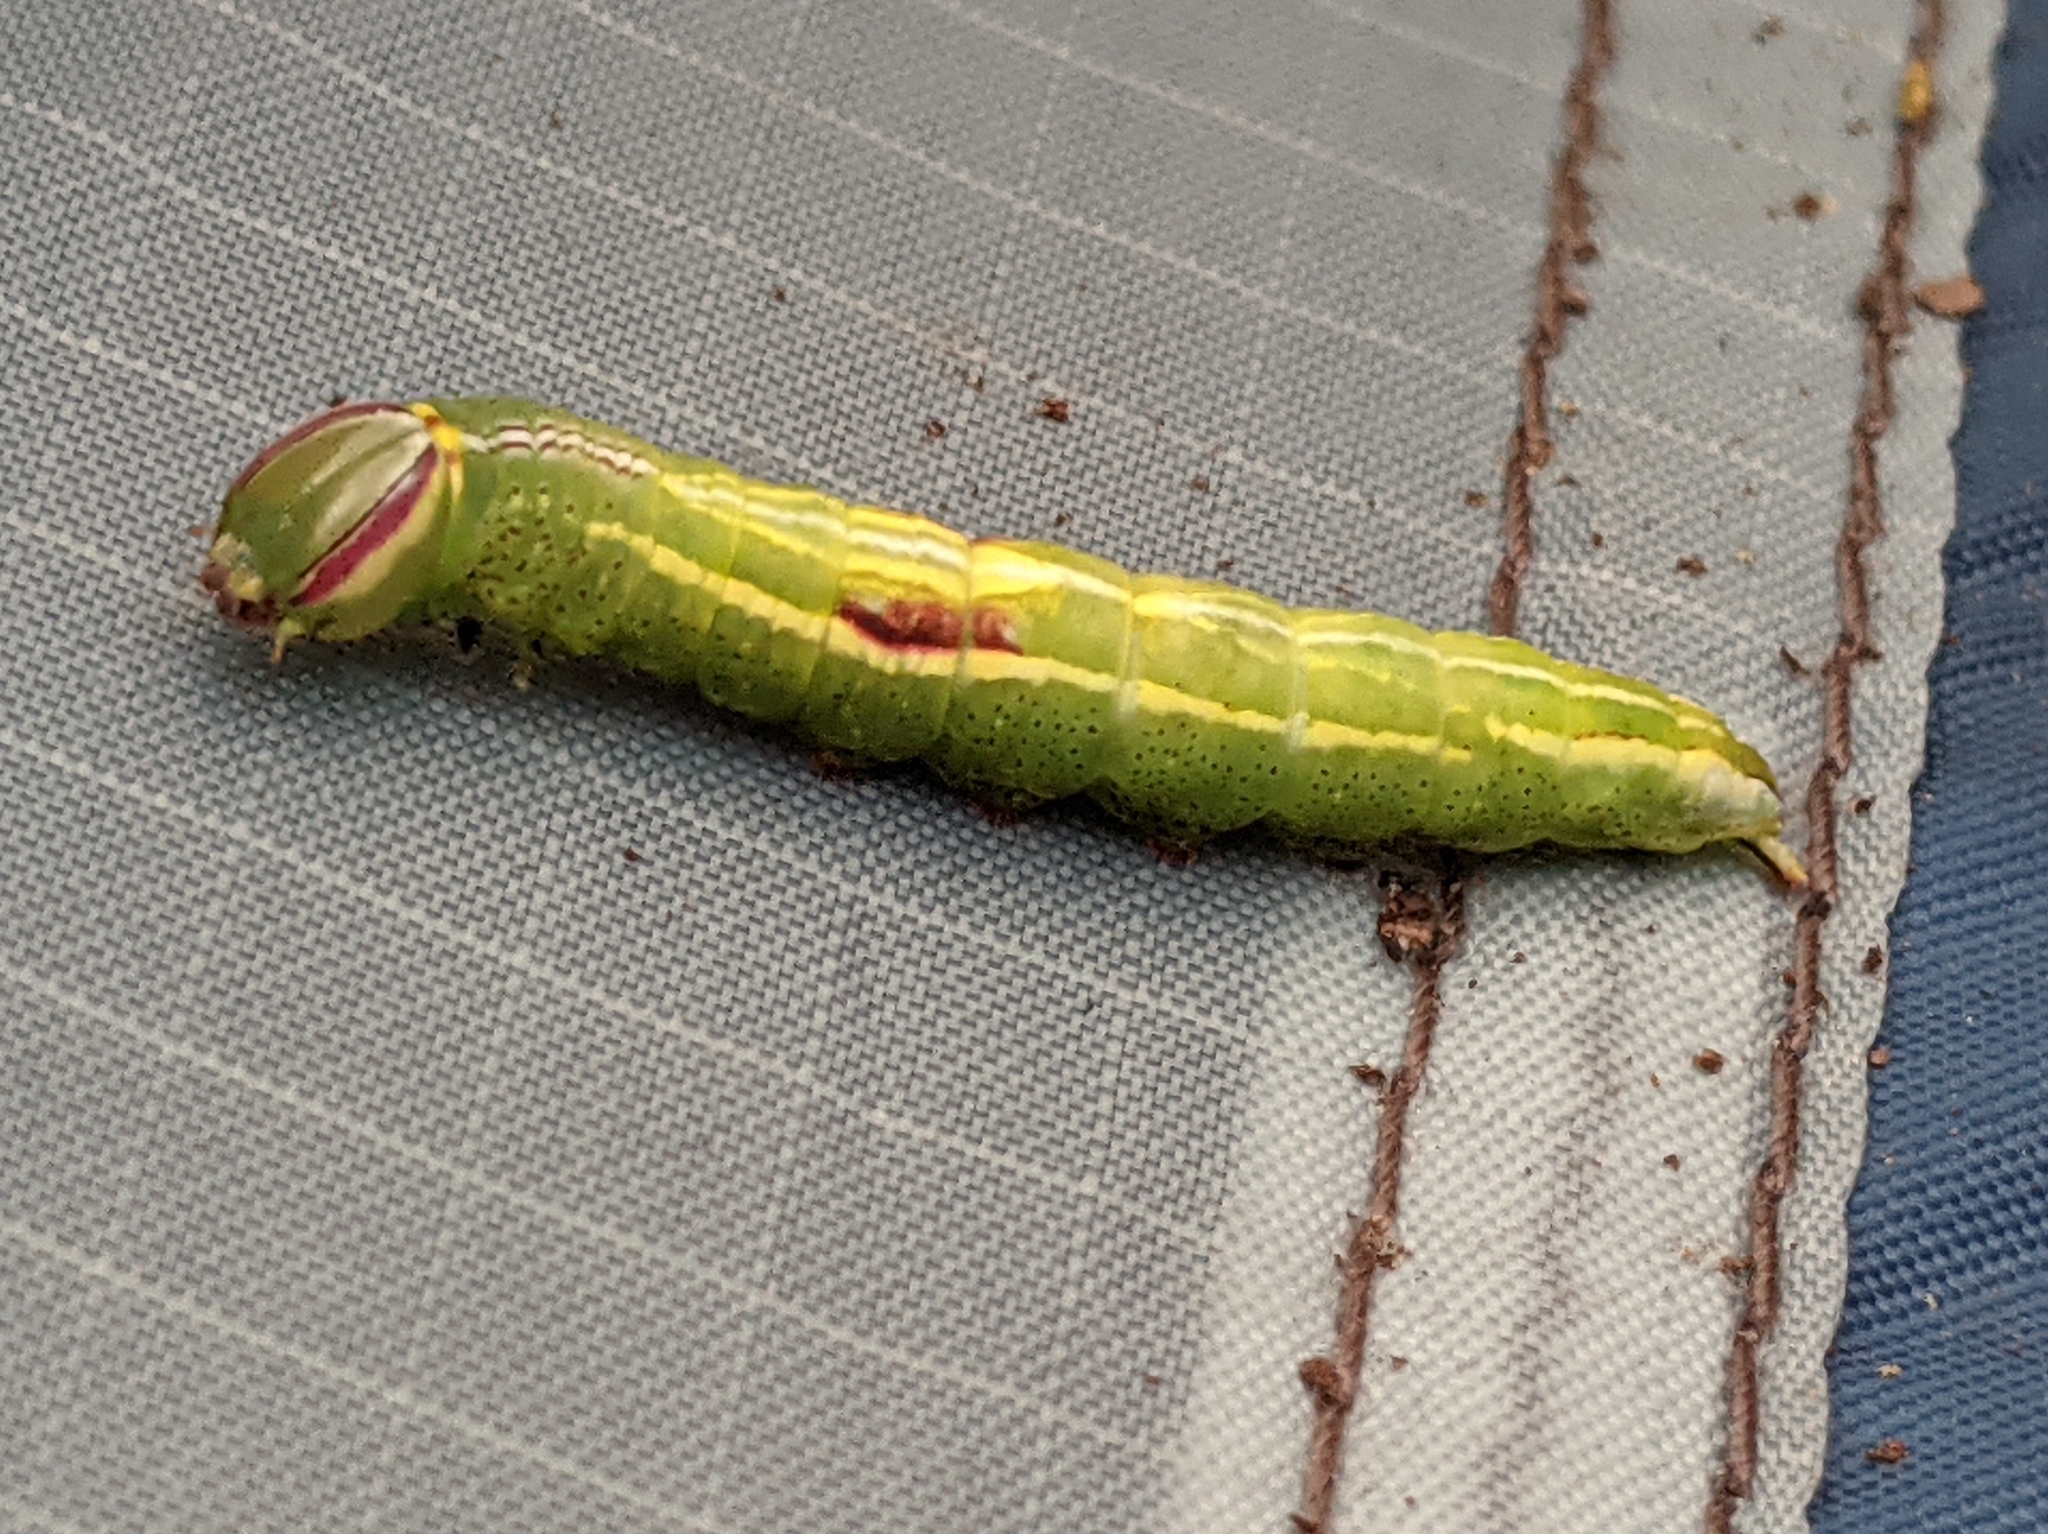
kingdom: Animalia
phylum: Arthropoda
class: Insecta
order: Lepidoptera
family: Notodontidae
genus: Disphragis
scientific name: Disphragis Cecrita guttivitta
